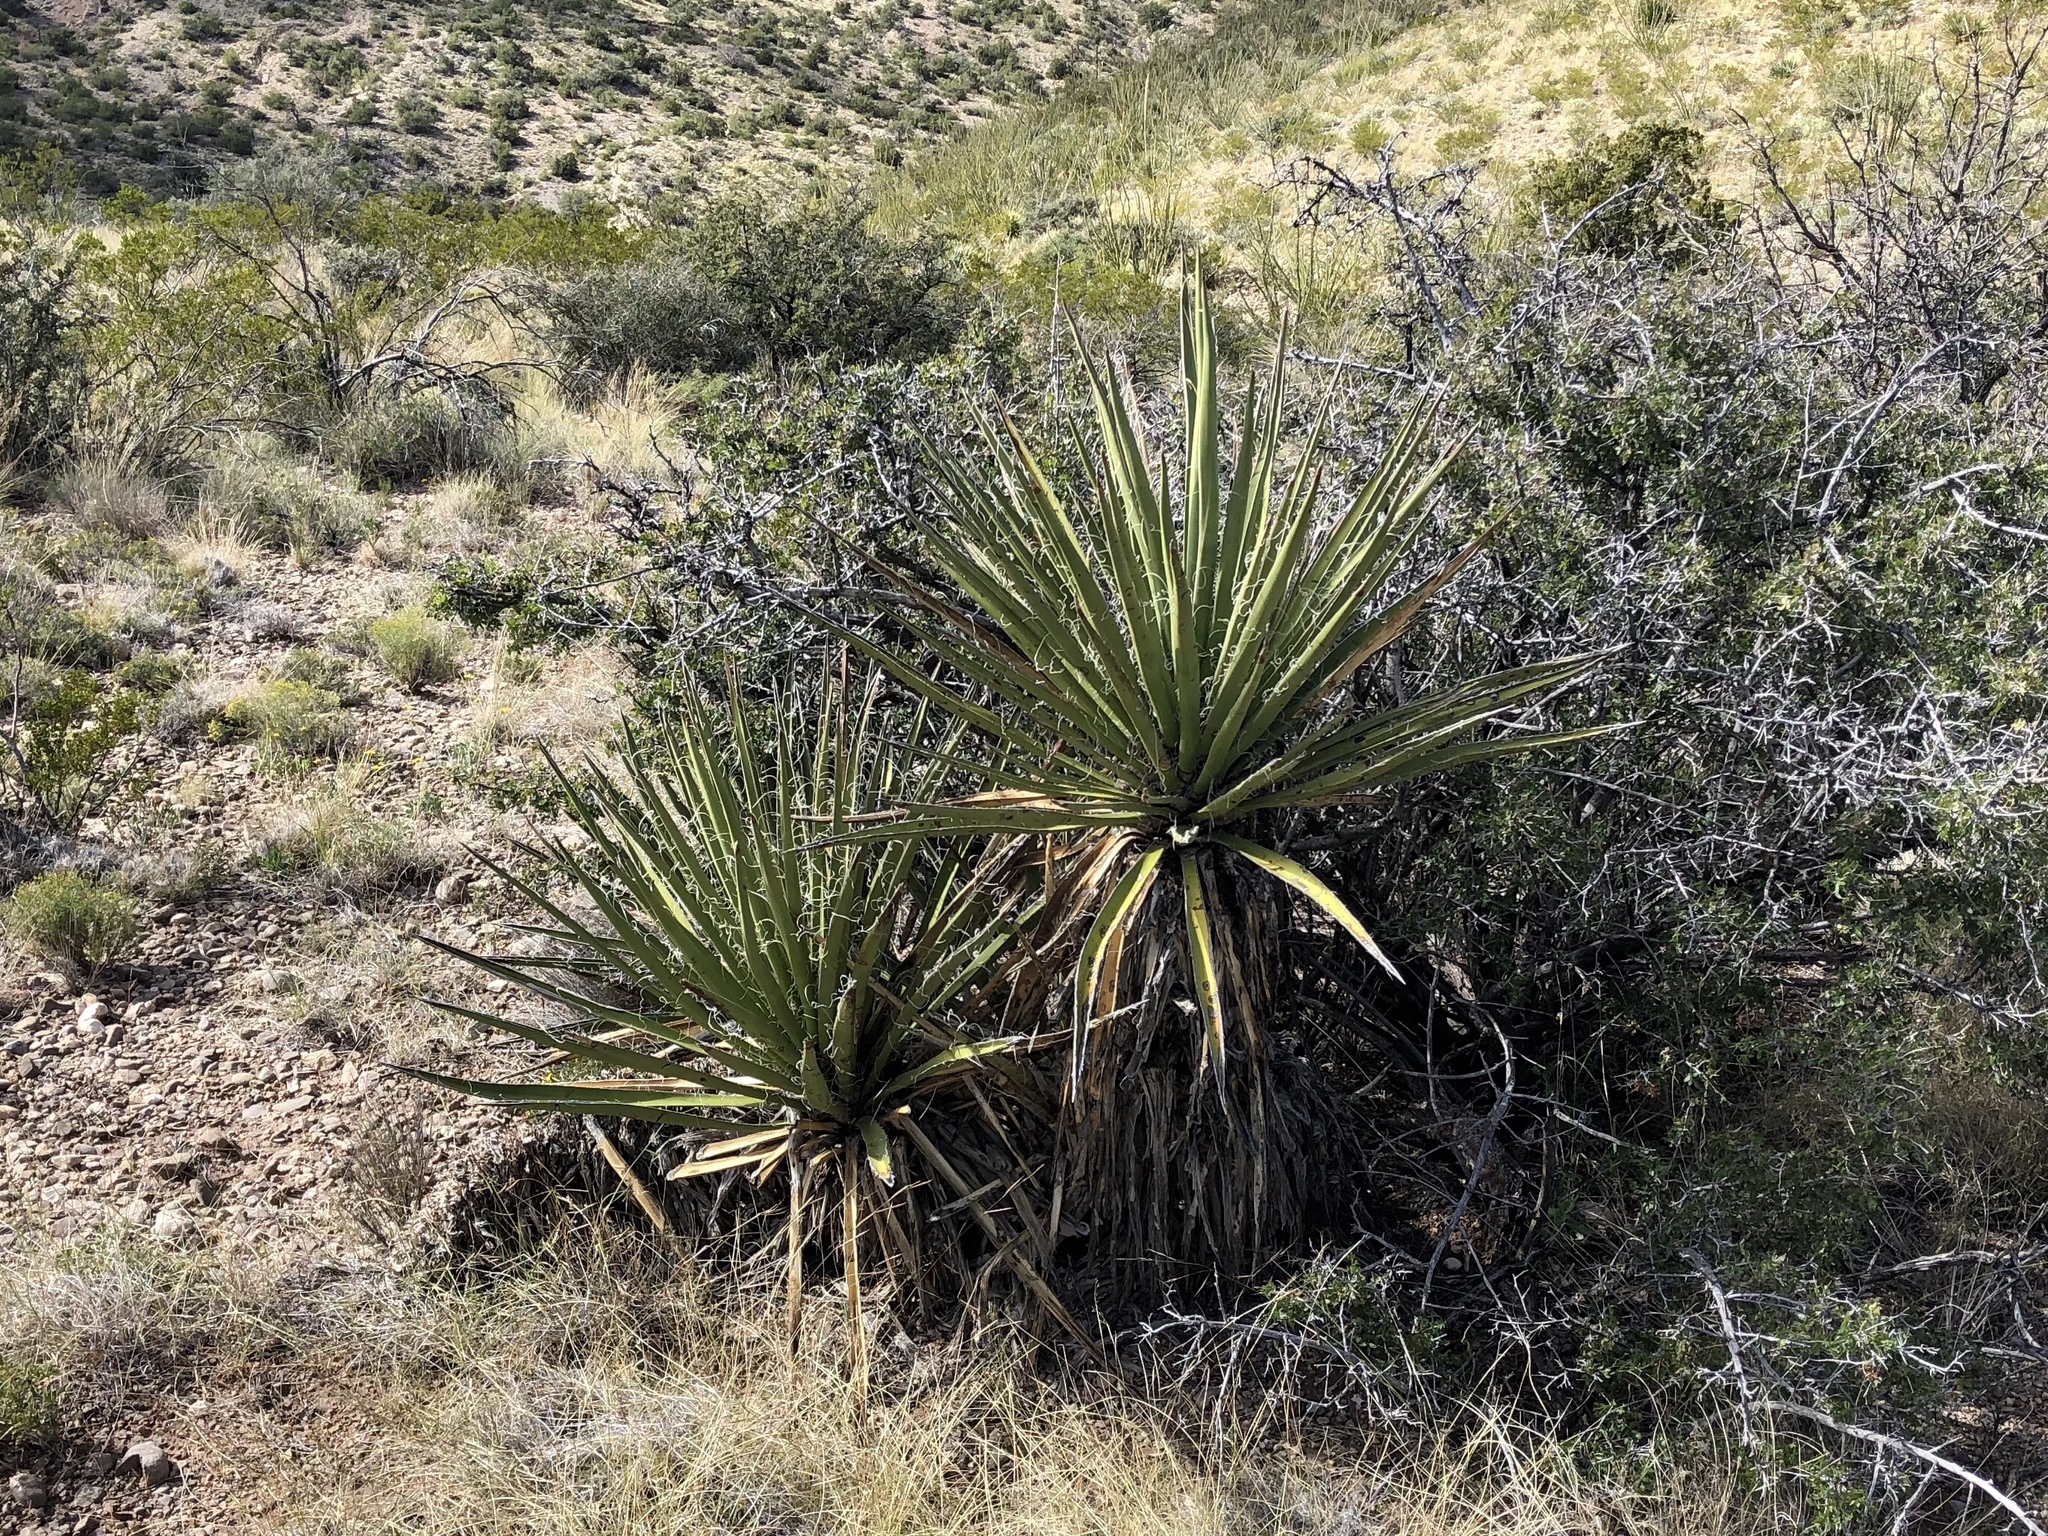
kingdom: Plantae
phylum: Tracheophyta
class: Liliopsida
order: Asparagales
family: Asparagaceae
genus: Yucca
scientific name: Yucca baccata
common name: Banana yucca
